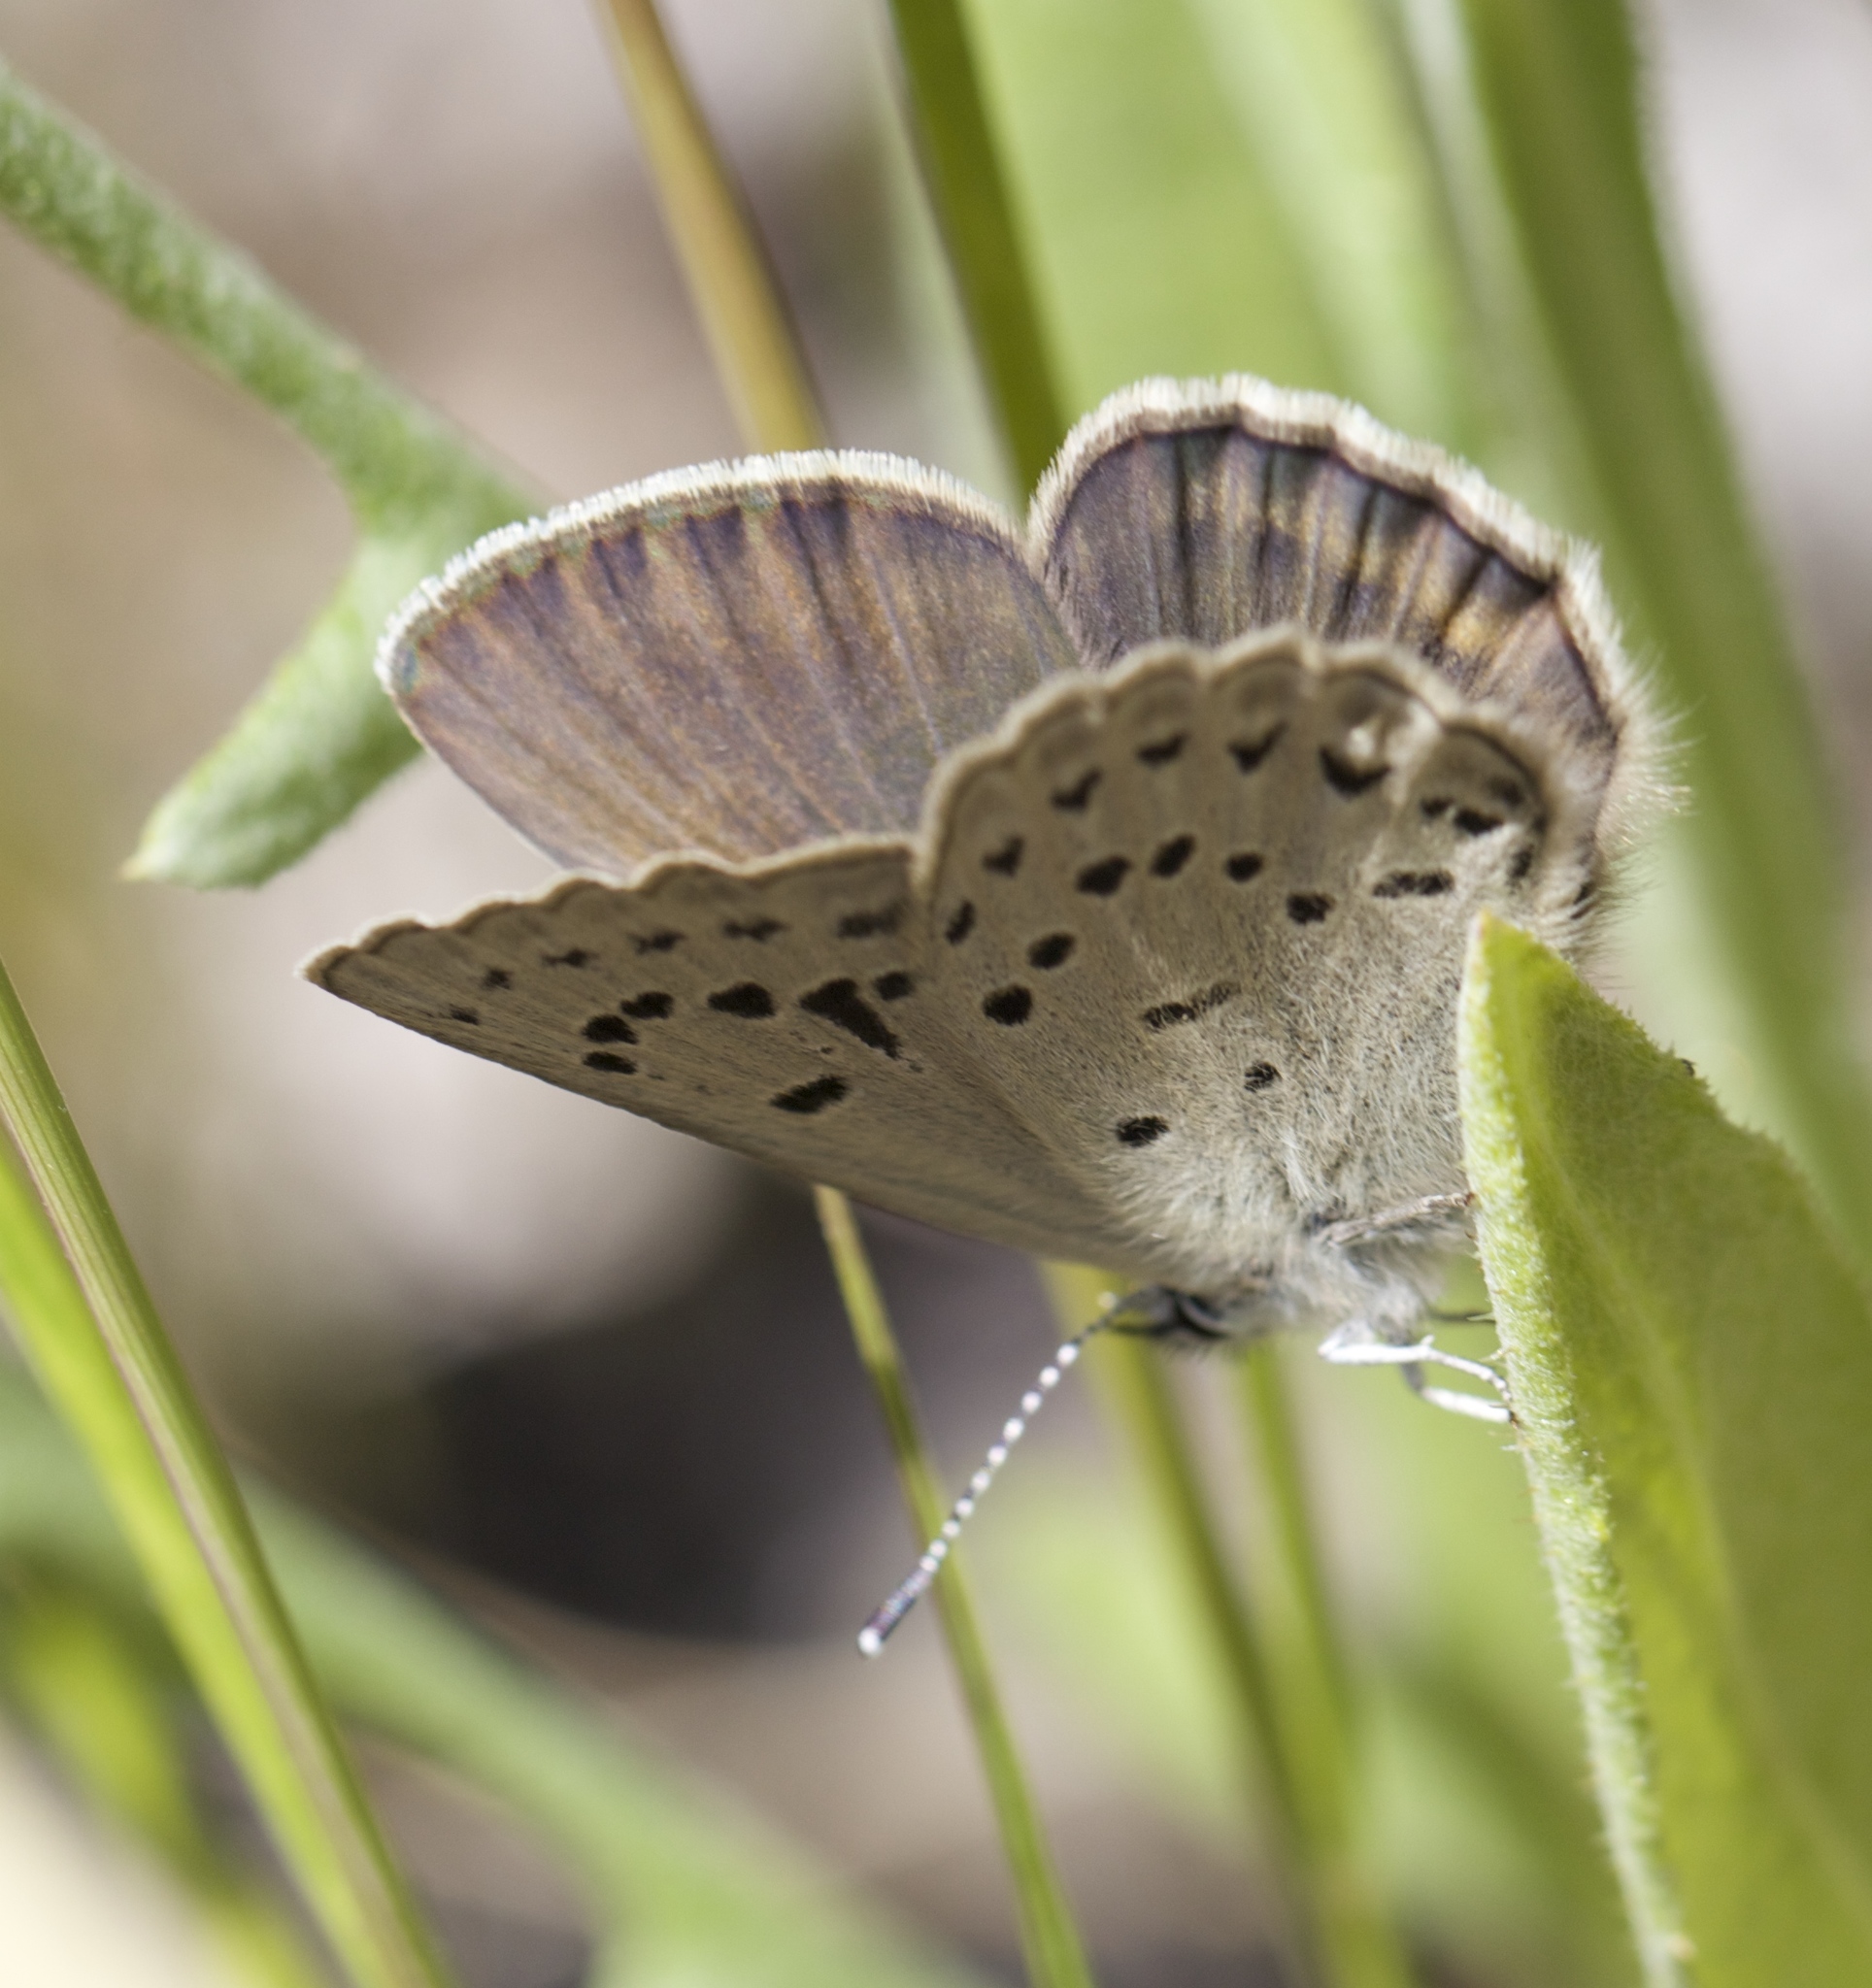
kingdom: Animalia
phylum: Arthropoda
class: Insecta
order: Lepidoptera
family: Lycaenidae
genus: Icaricia
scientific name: Icaricia icarioides
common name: Boisduval's blue
